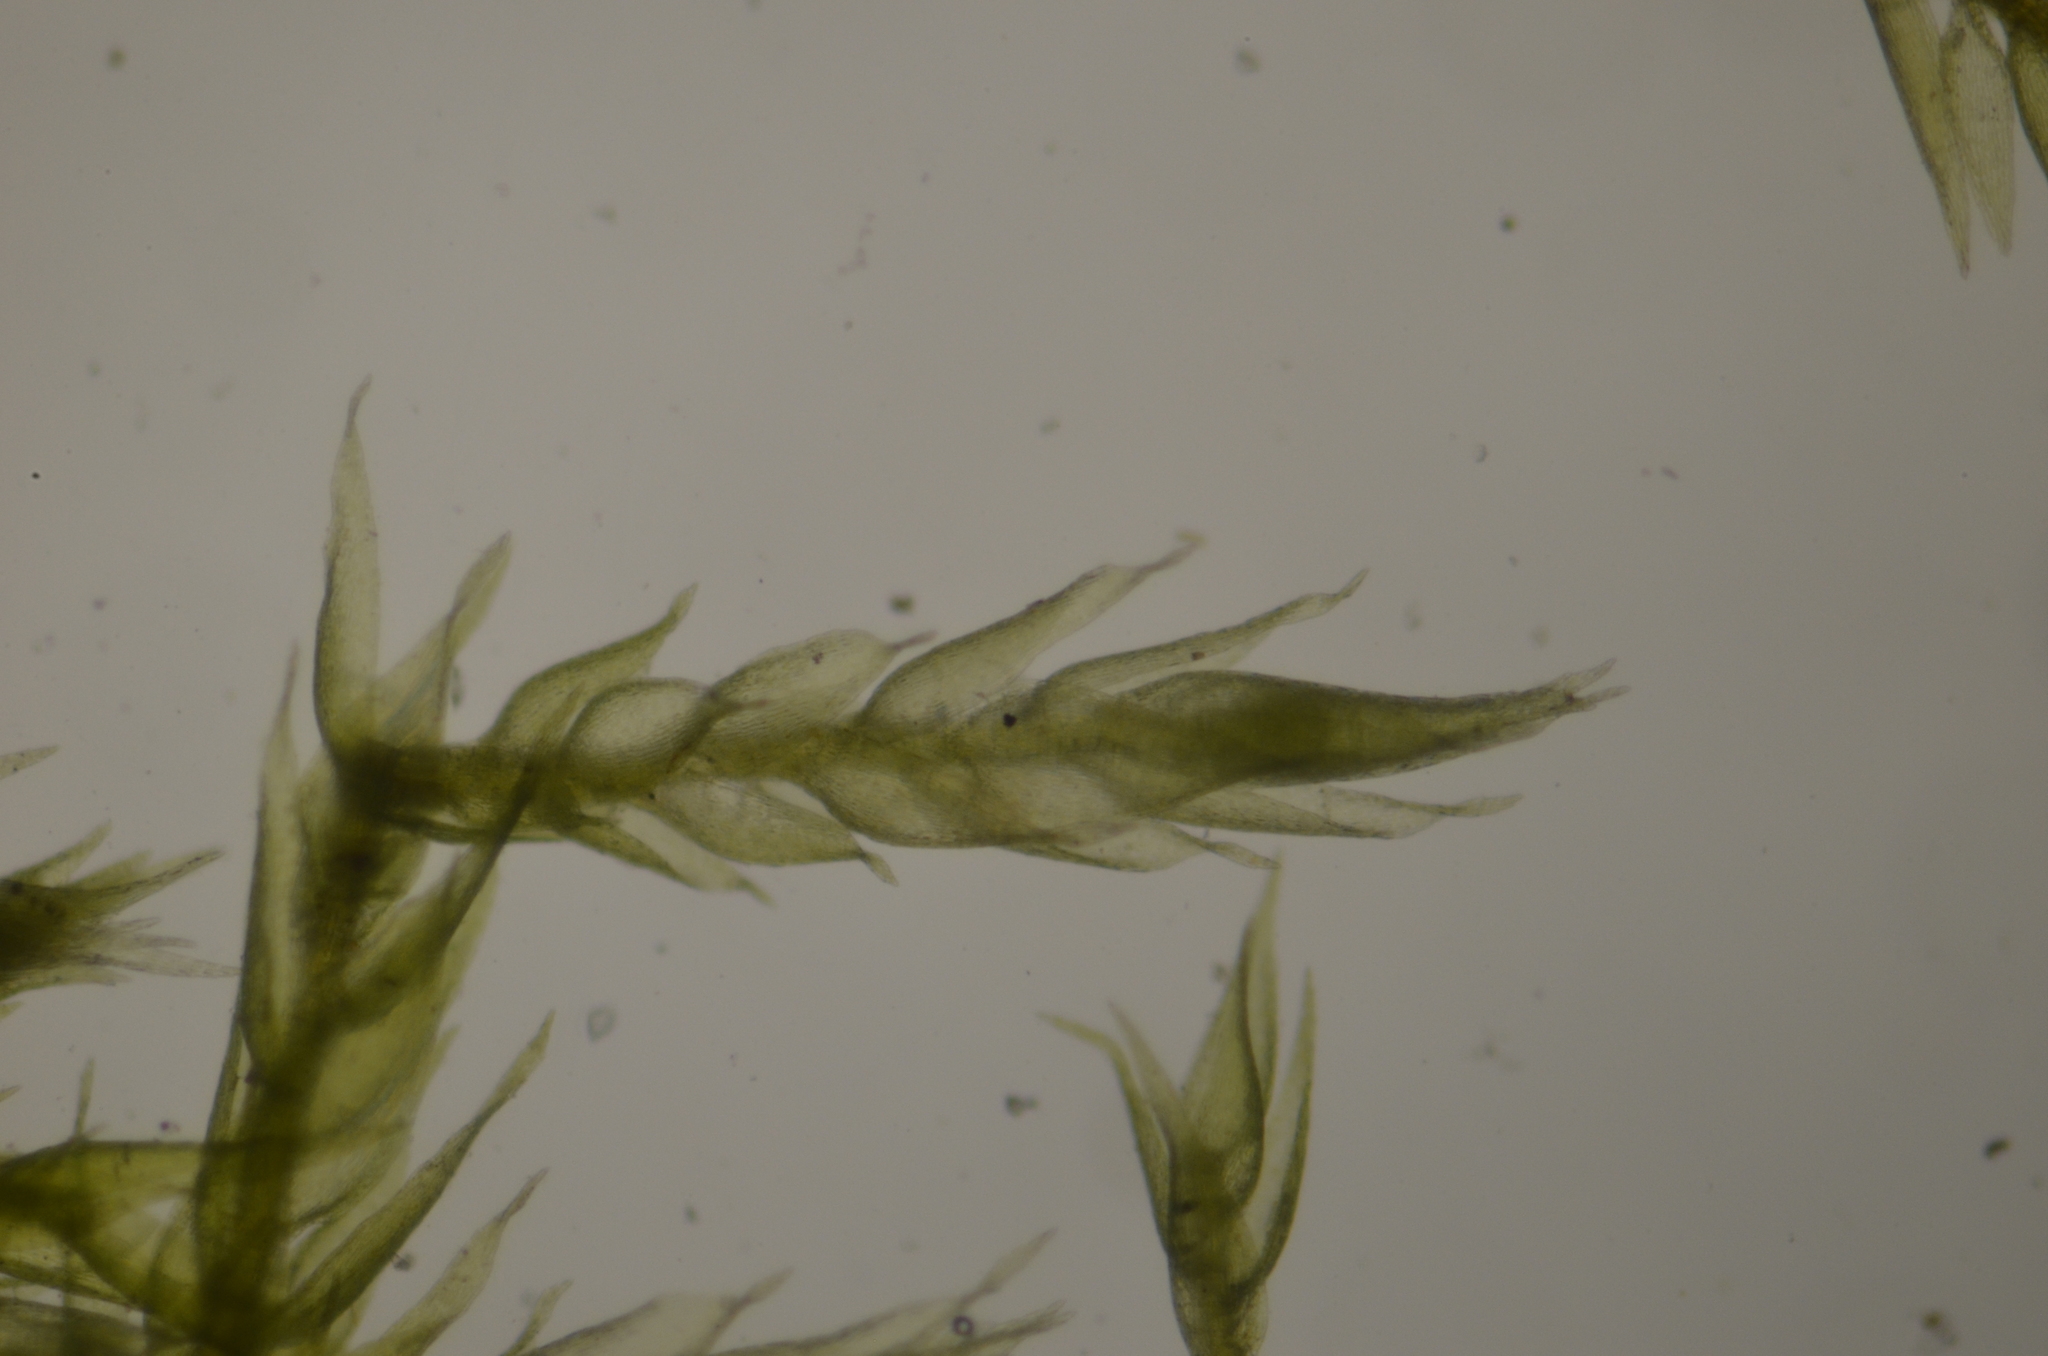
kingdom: Plantae
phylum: Bryophyta
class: Bryopsida
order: Hypnales
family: Pylaisiadelphaceae
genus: Brotherella
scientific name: Brotherella fauriei
